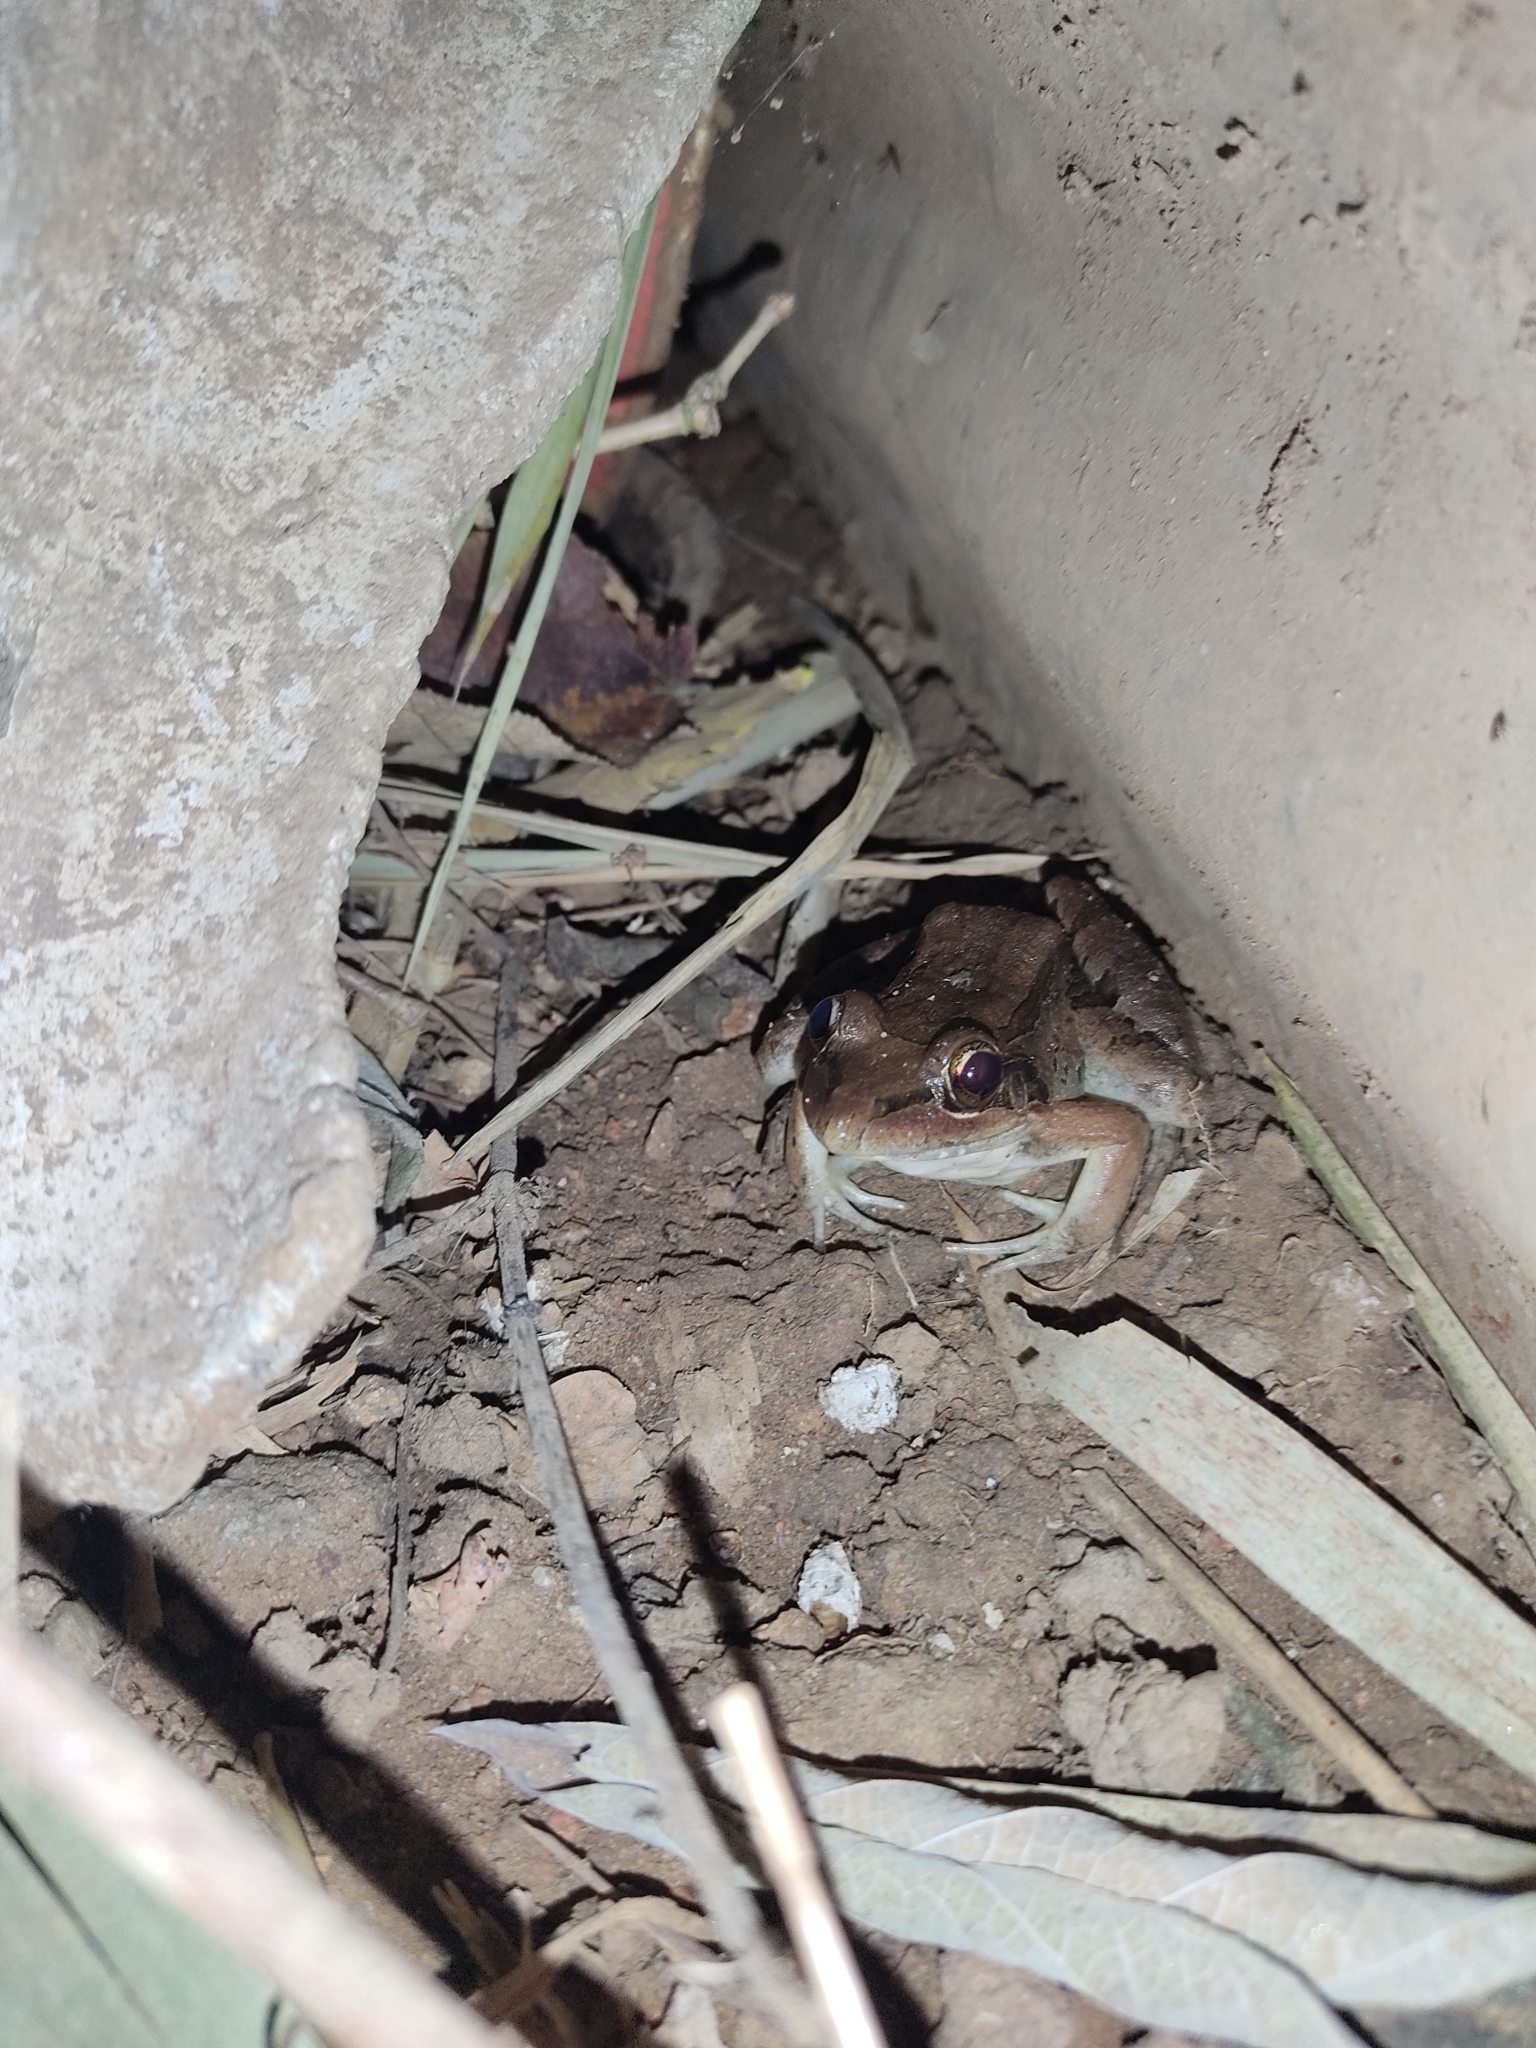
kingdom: Animalia
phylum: Chordata
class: Amphibia
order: Anura
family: Leptodactylidae
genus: Leptodactylus
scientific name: Leptodactylus fragilis
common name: Mexican white-lipped frog
